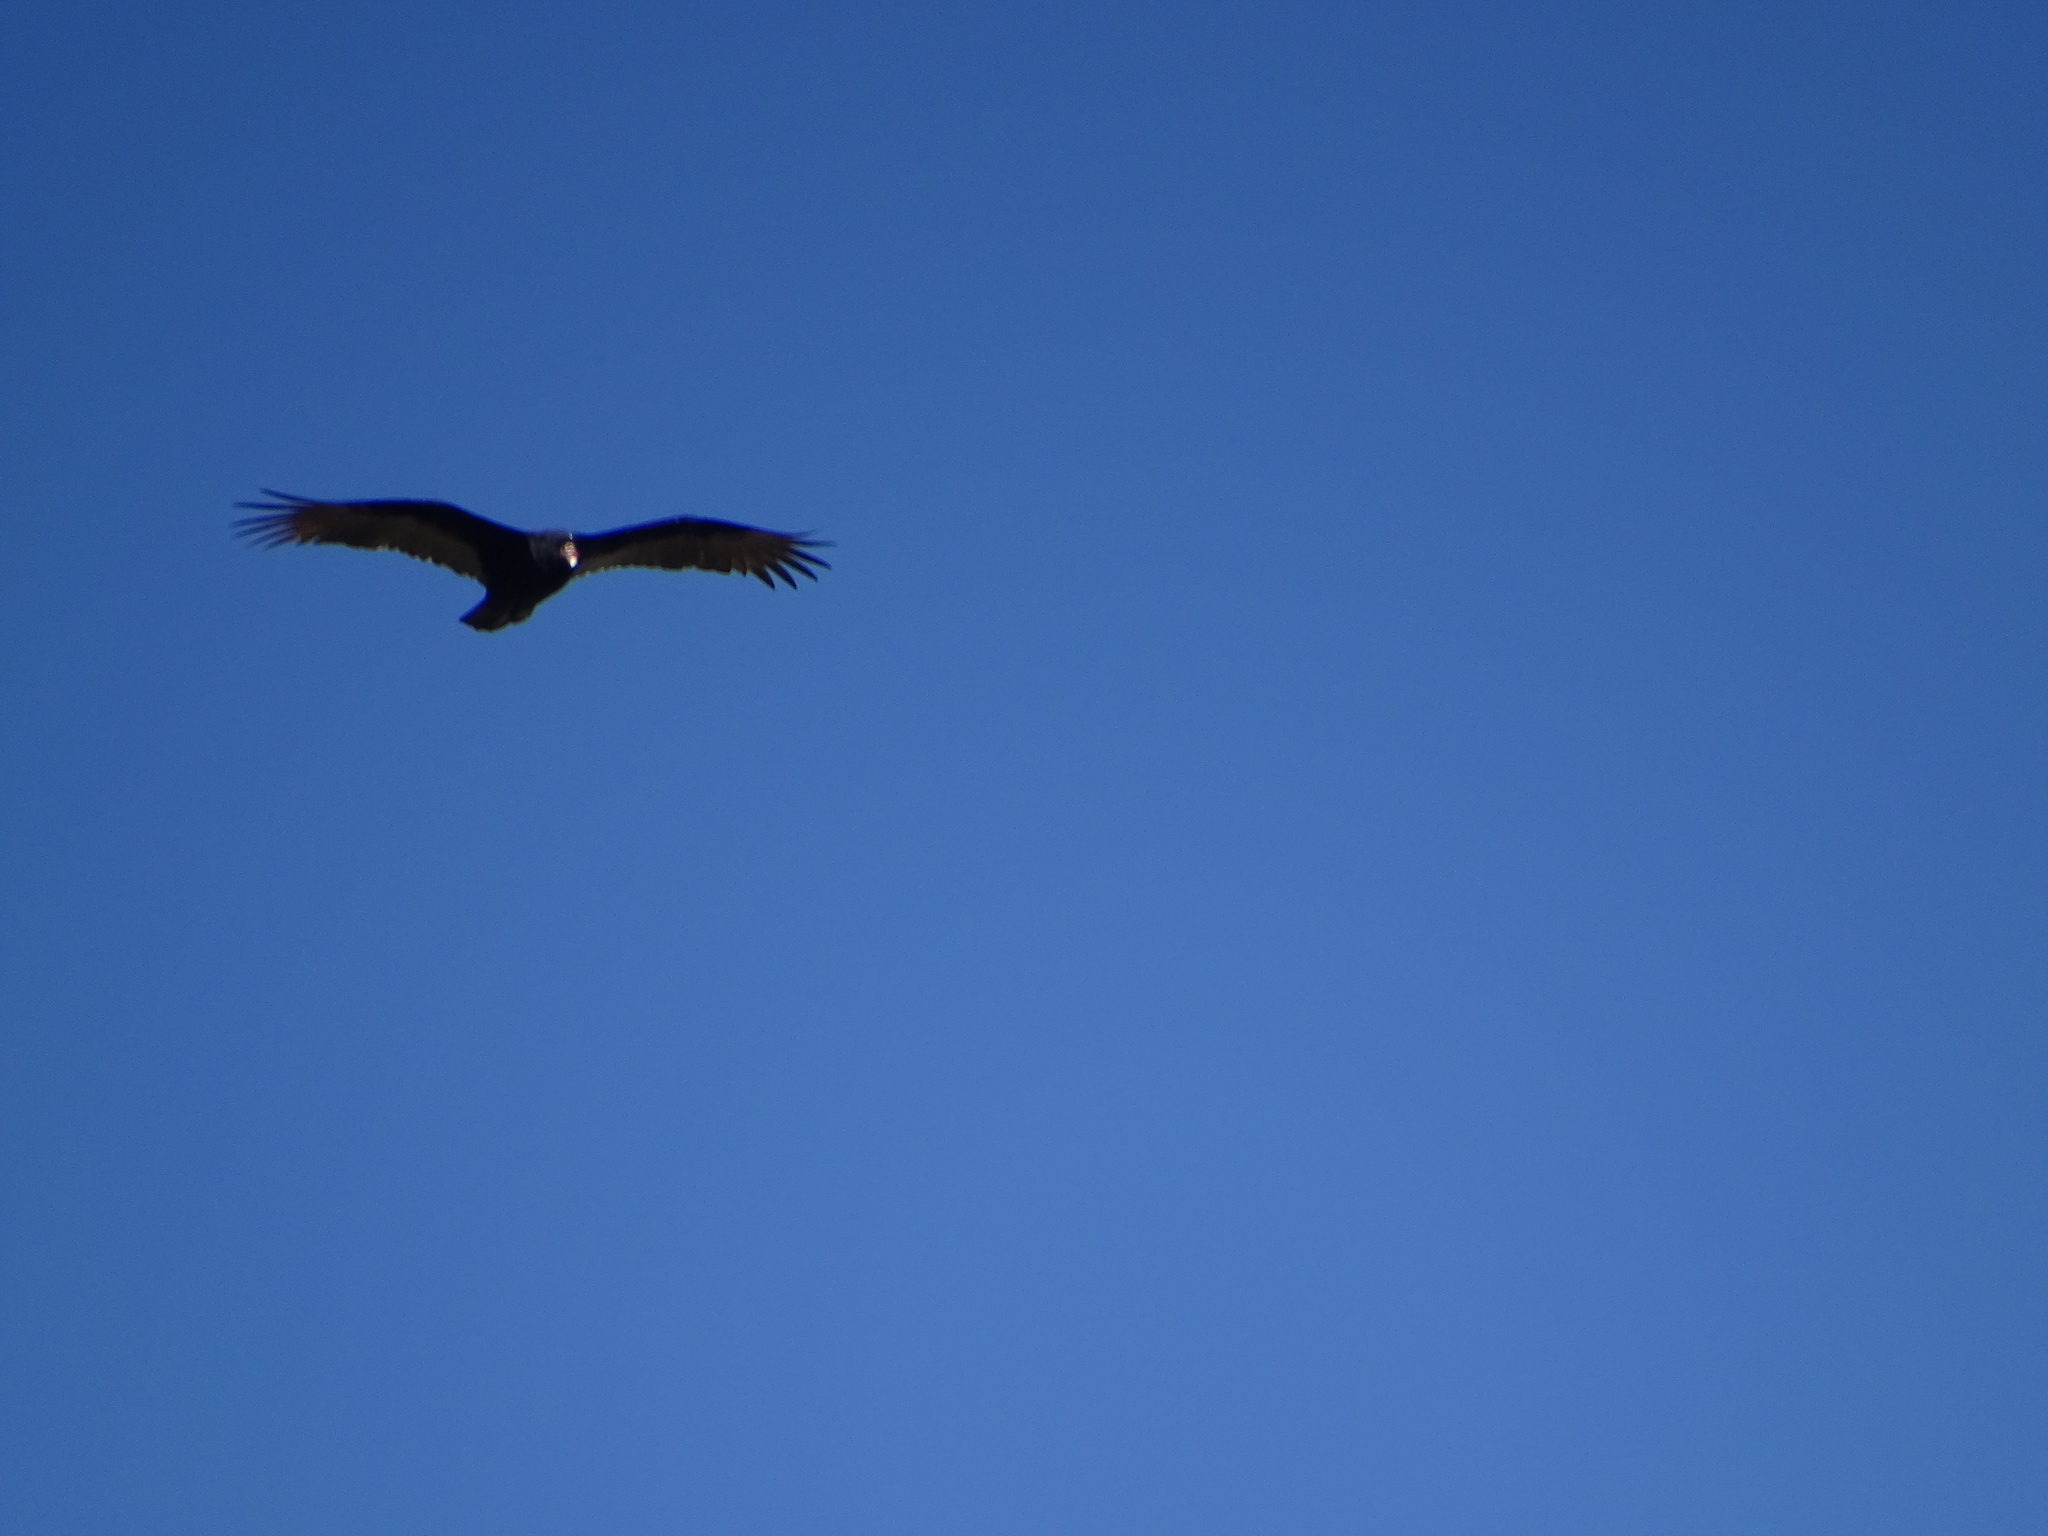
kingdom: Animalia
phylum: Chordata
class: Aves
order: Accipitriformes
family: Cathartidae
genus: Cathartes
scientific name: Cathartes aura
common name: Turkey vulture
